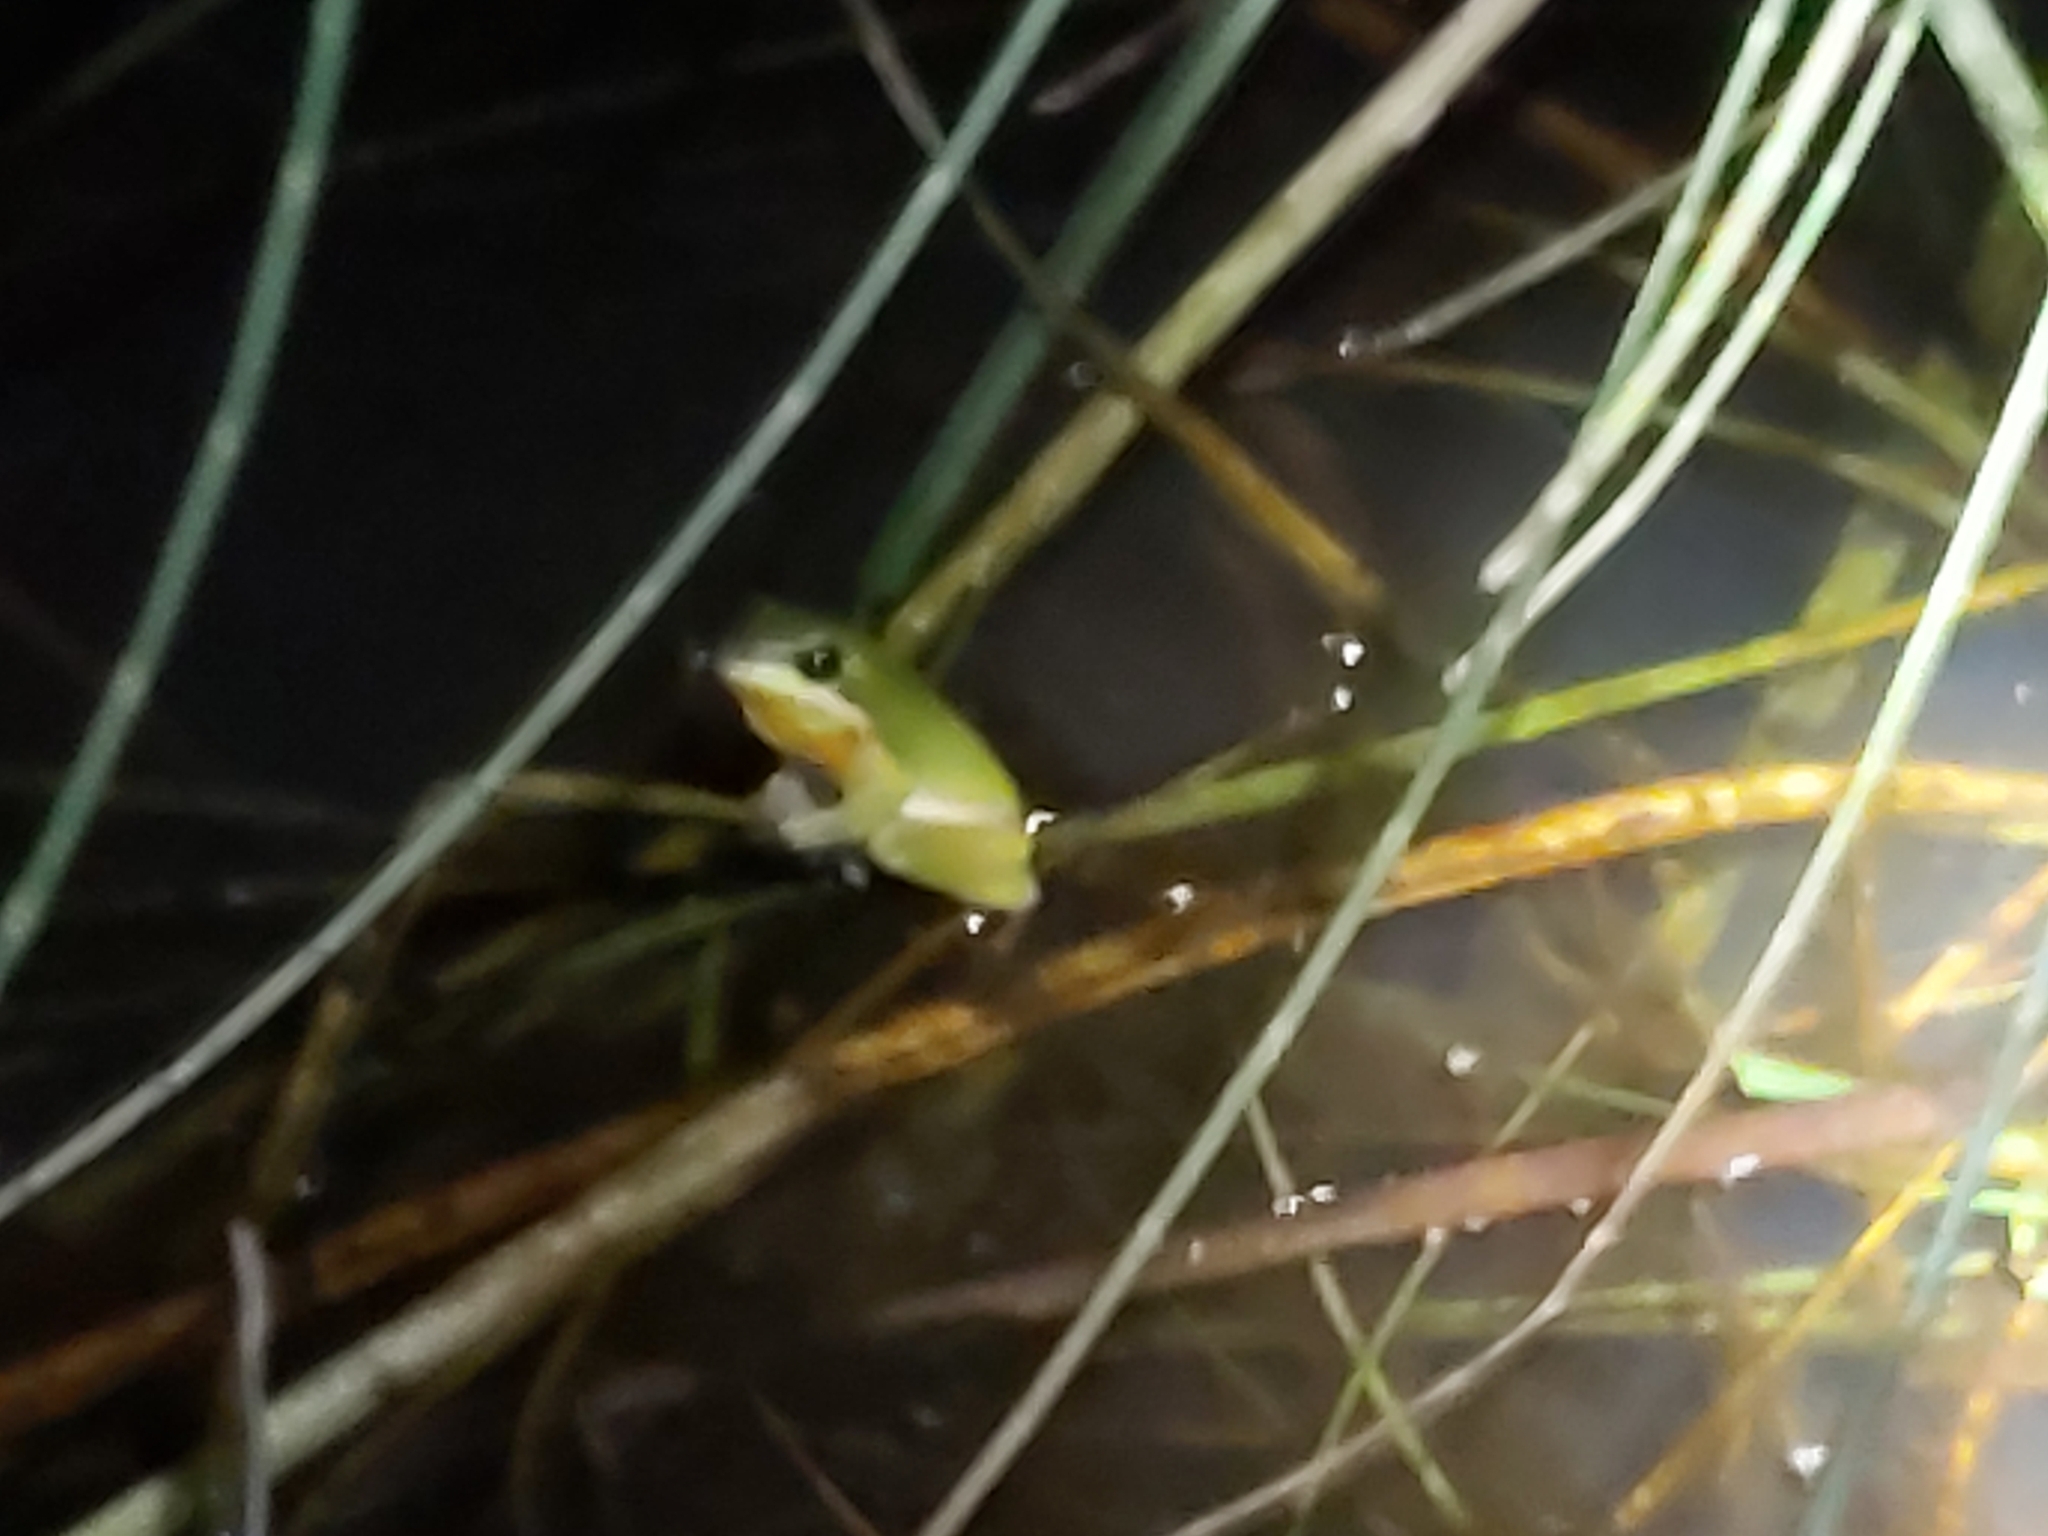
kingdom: Animalia
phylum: Chordata
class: Amphibia
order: Anura
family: Pelodryadidae
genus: Litoria
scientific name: Litoria fallax
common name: Eastern dwarf treefrog
